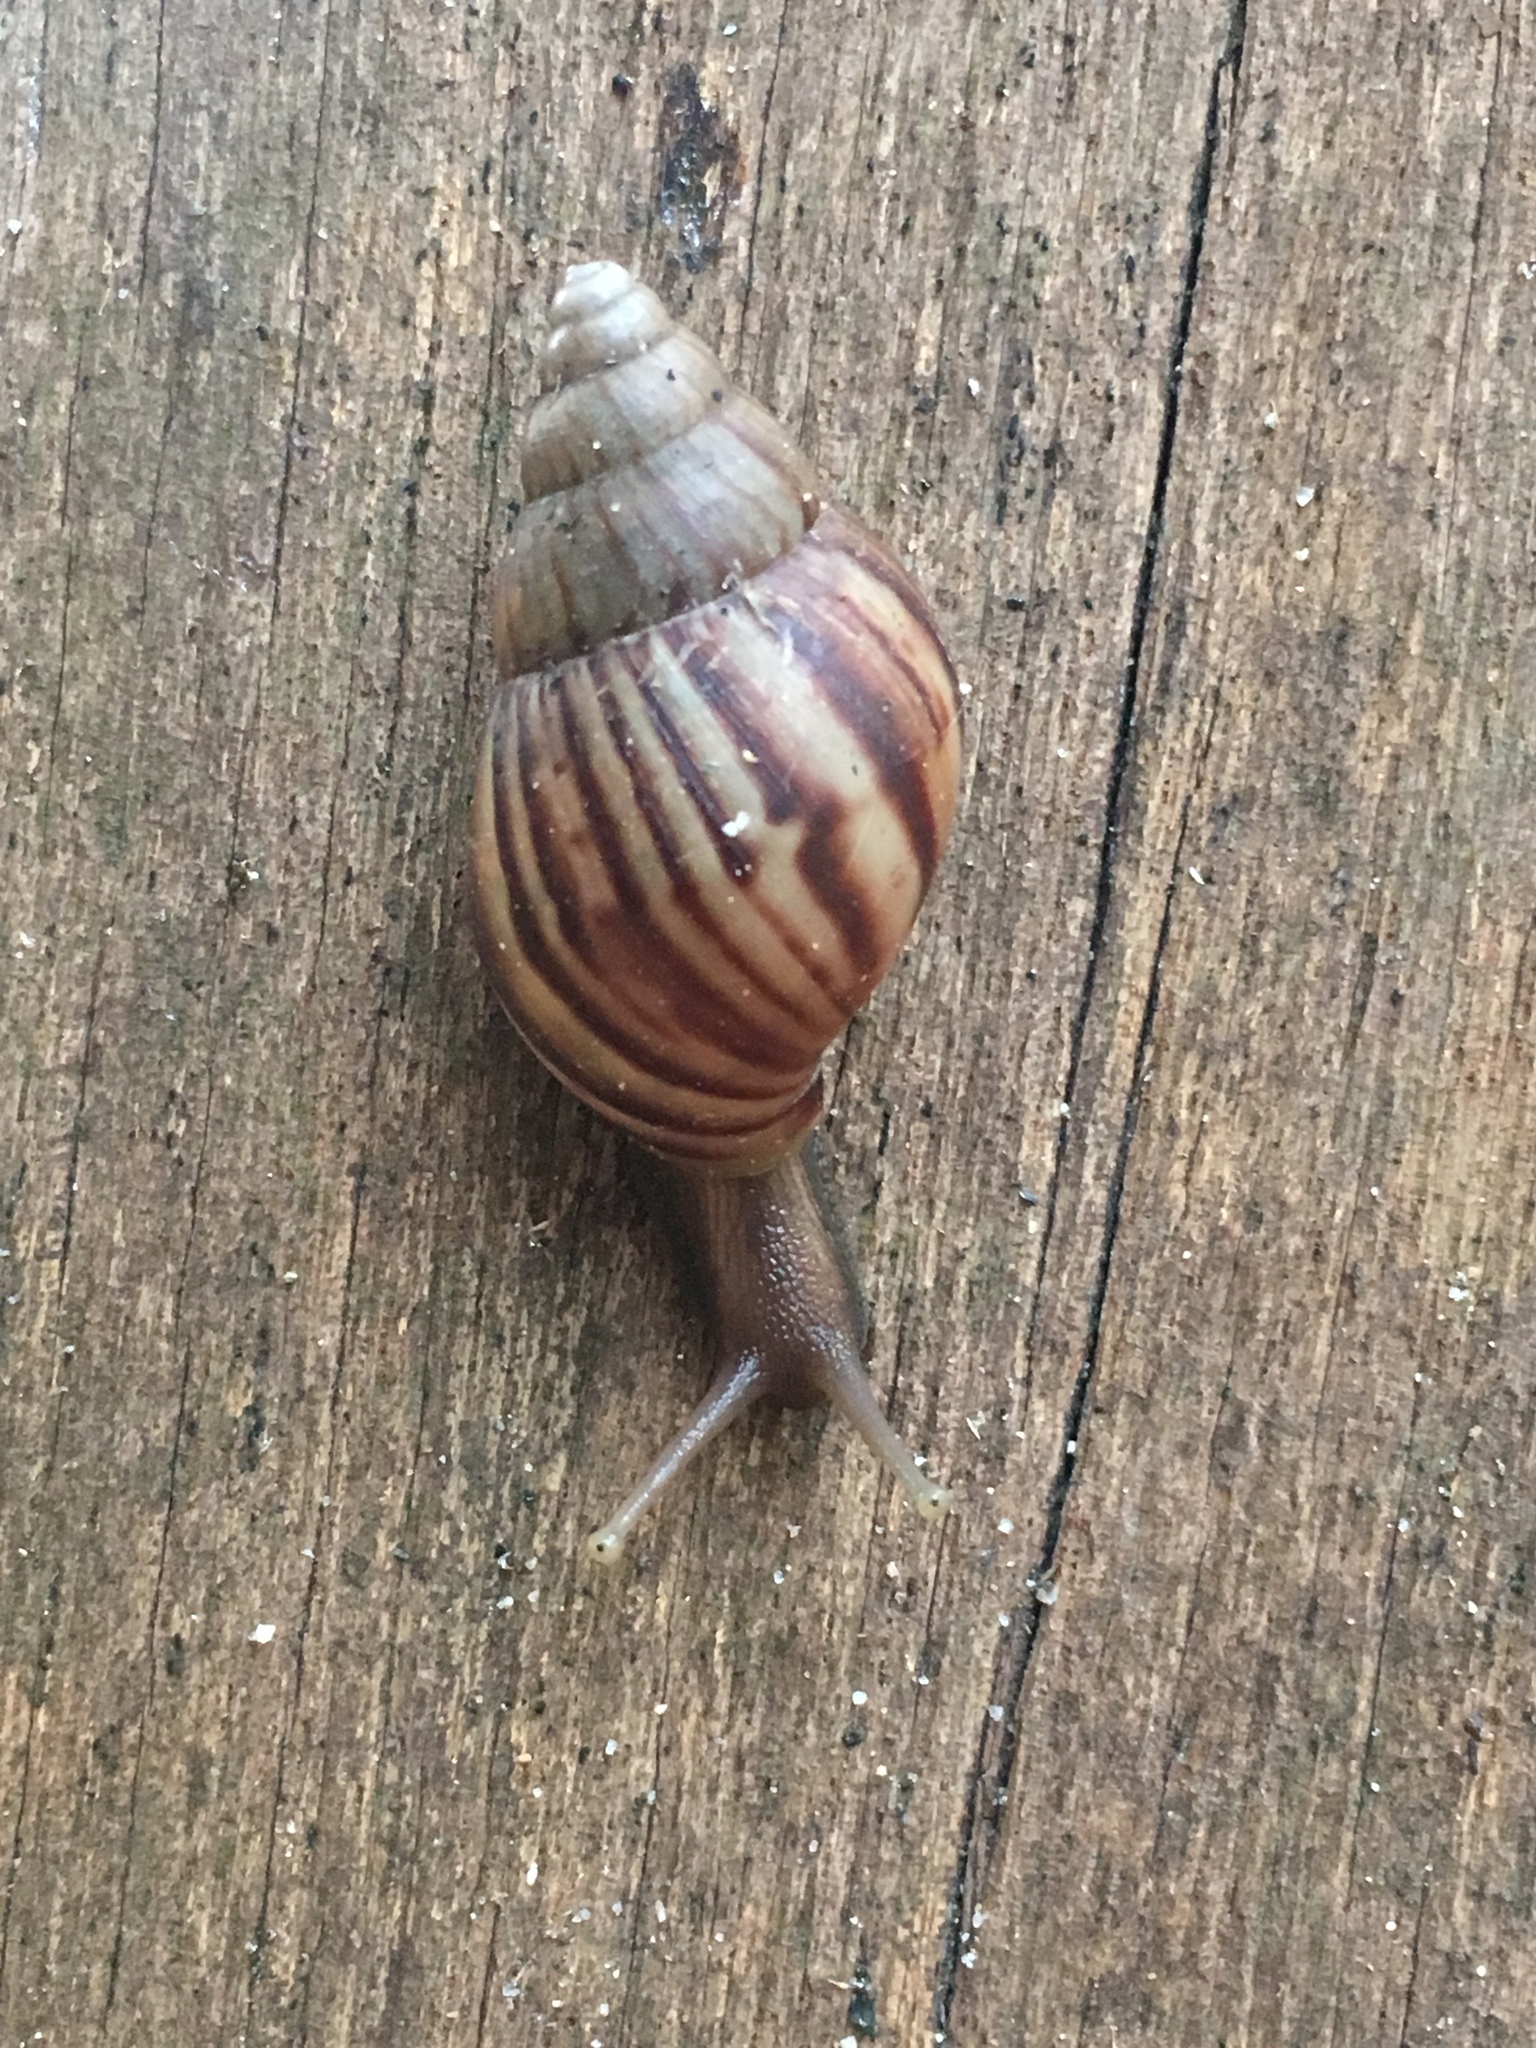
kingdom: Animalia
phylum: Mollusca
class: Gastropoda
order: Stylommatophora
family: Achatinidae
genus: Lissachatina
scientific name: Lissachatina fulica
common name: Giant african snail
